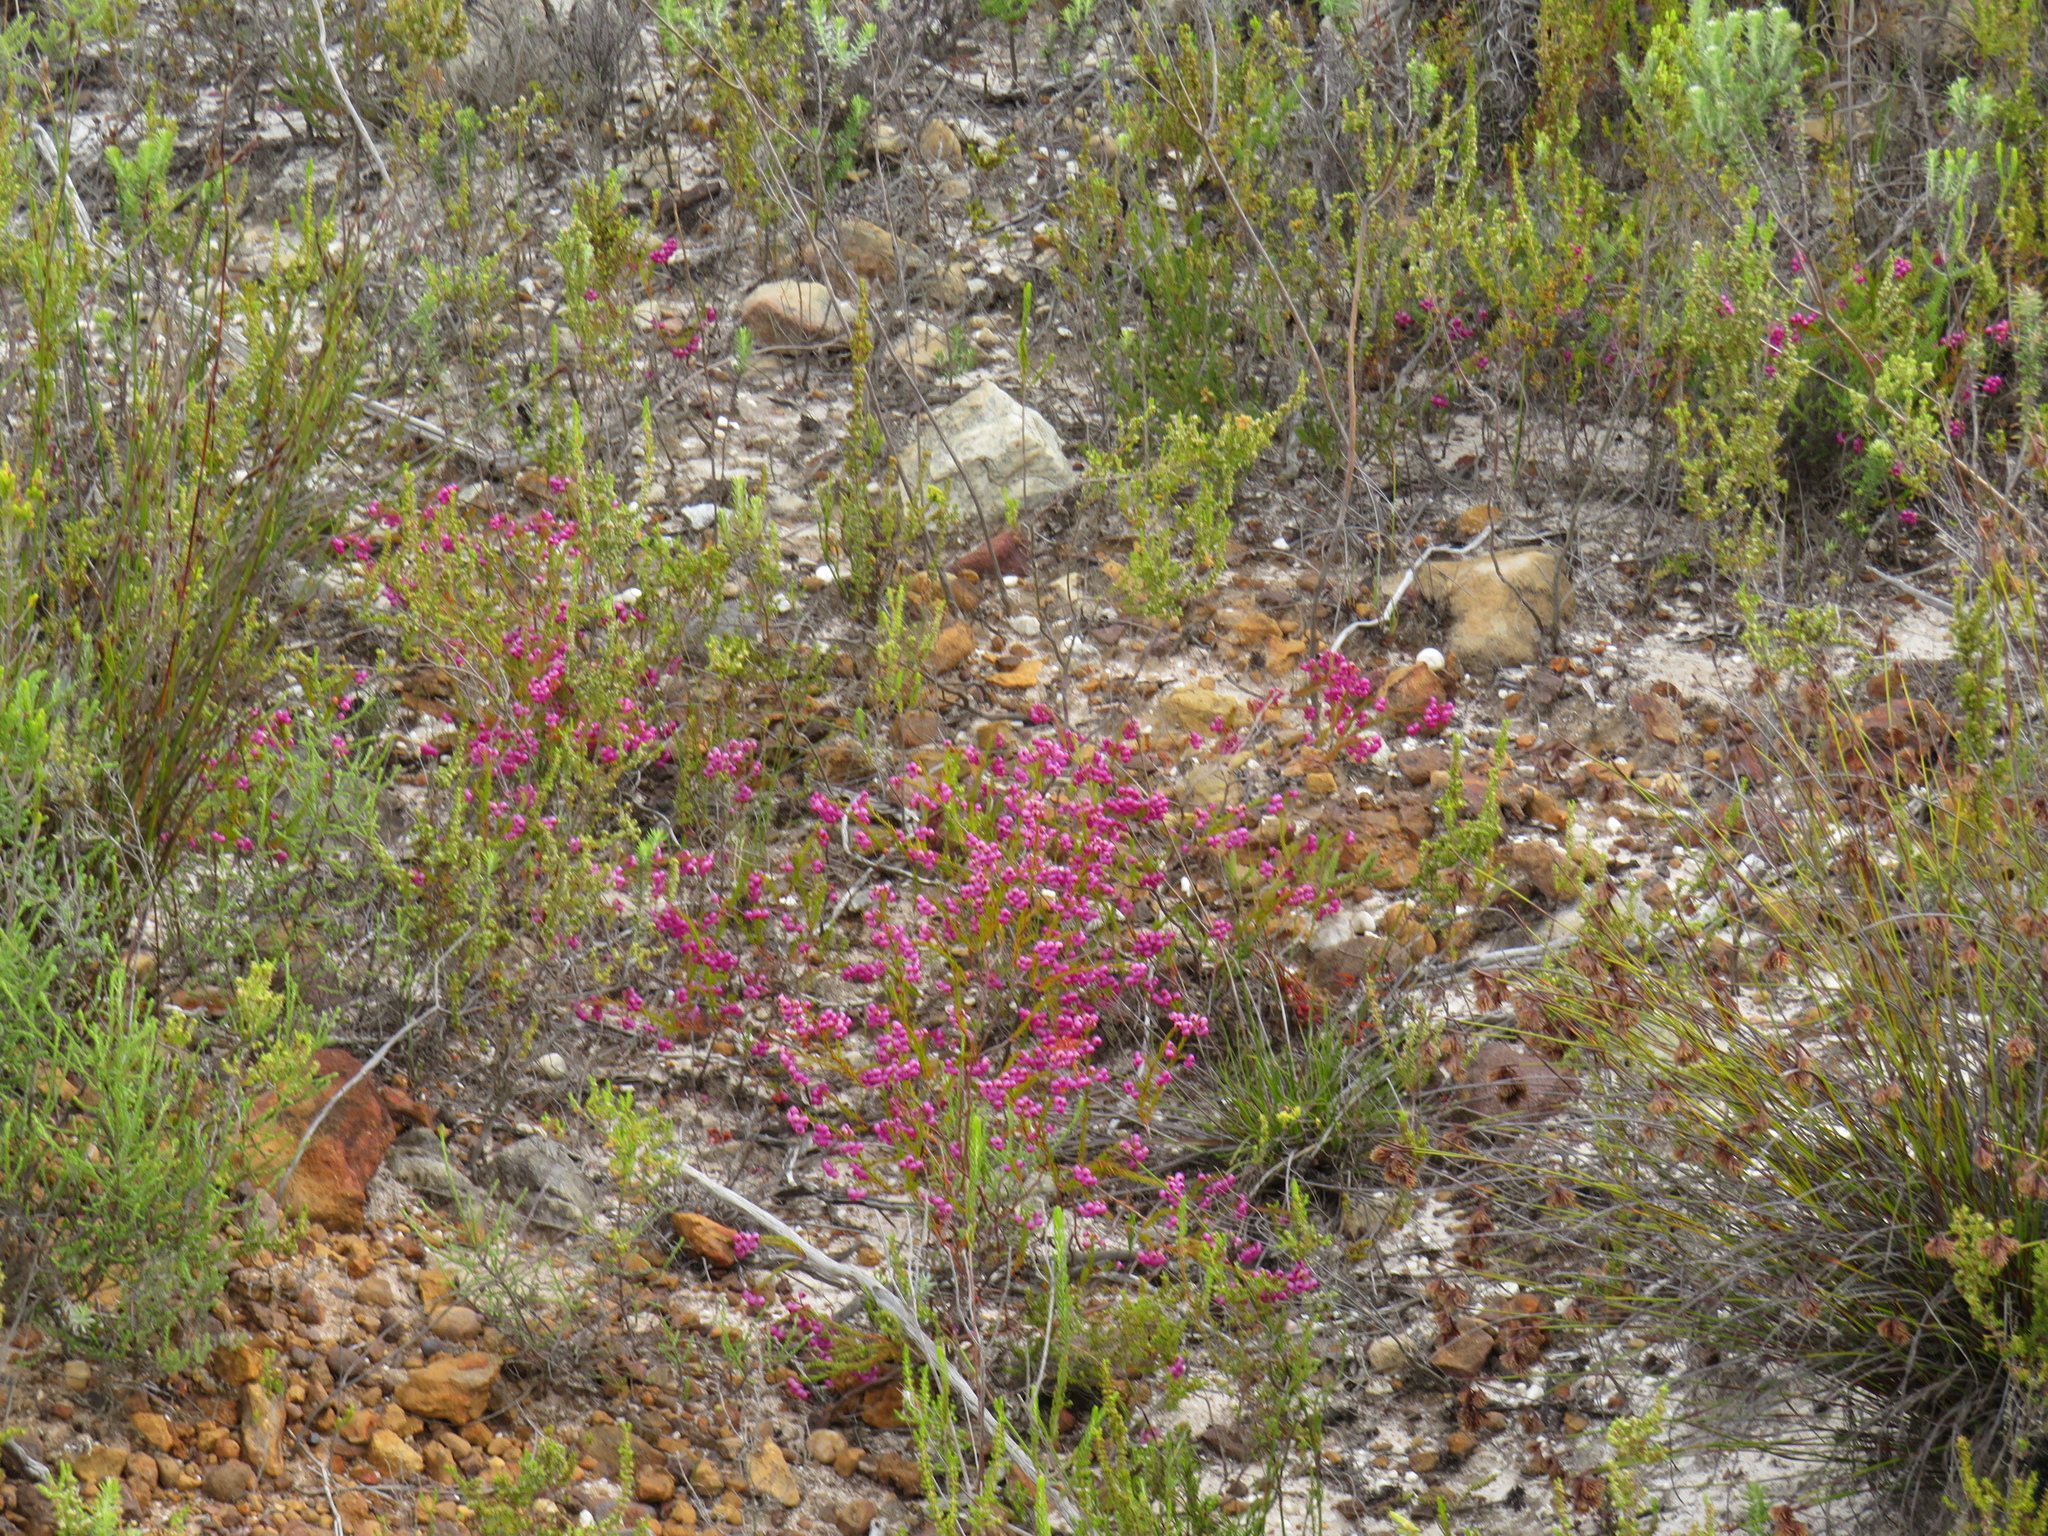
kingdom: Plantae
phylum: Tracheophyta
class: Magnoliopsida
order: Ericales
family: Ericaceae
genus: Erica
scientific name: Erica multumbellifera
